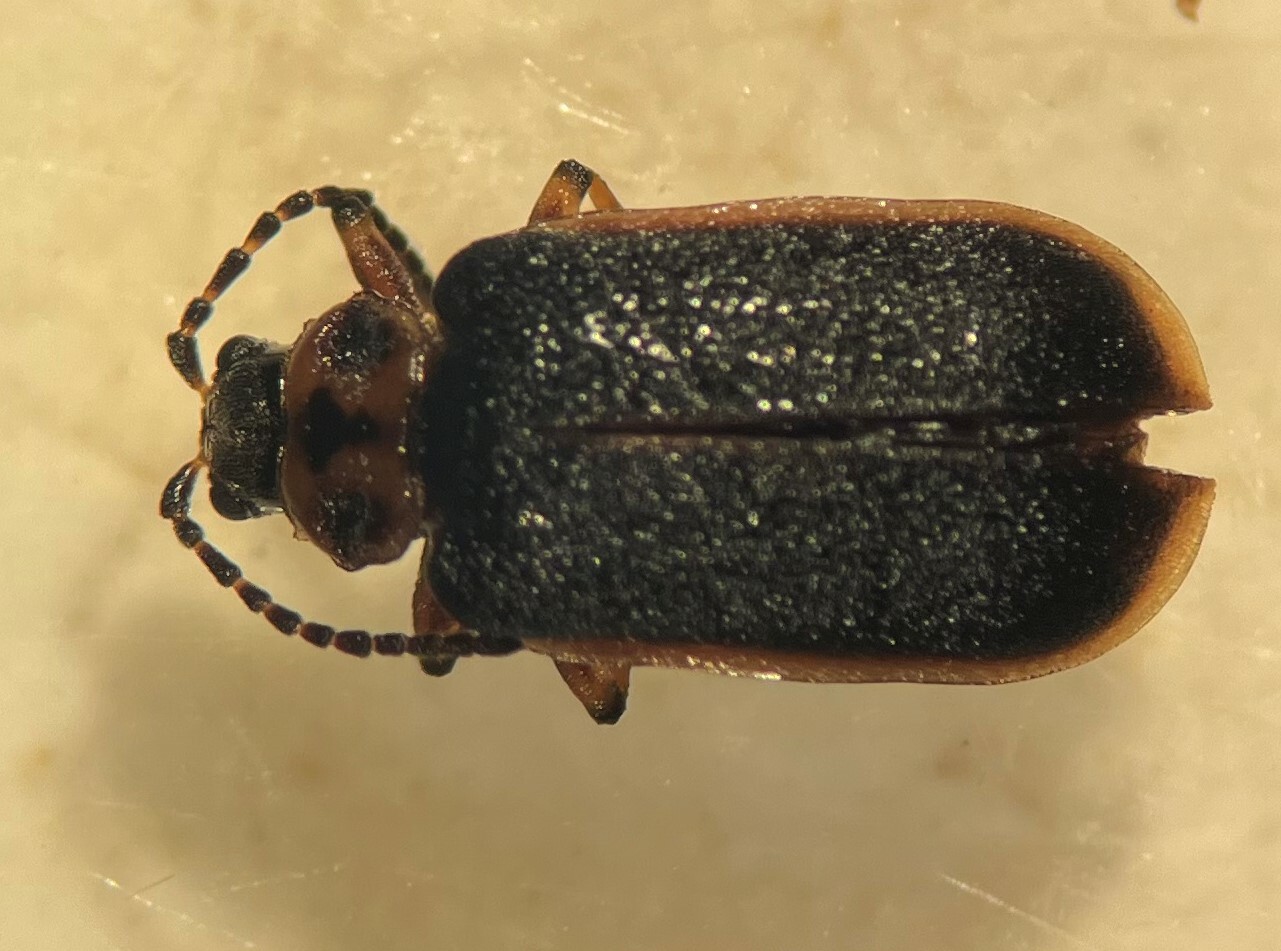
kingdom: Animalia
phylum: Arthropoda
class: Insecta
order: Coleoptera
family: Chrysomelidae
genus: Galerucella
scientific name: Galerucella nymphaeae
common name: Leaf beetle
